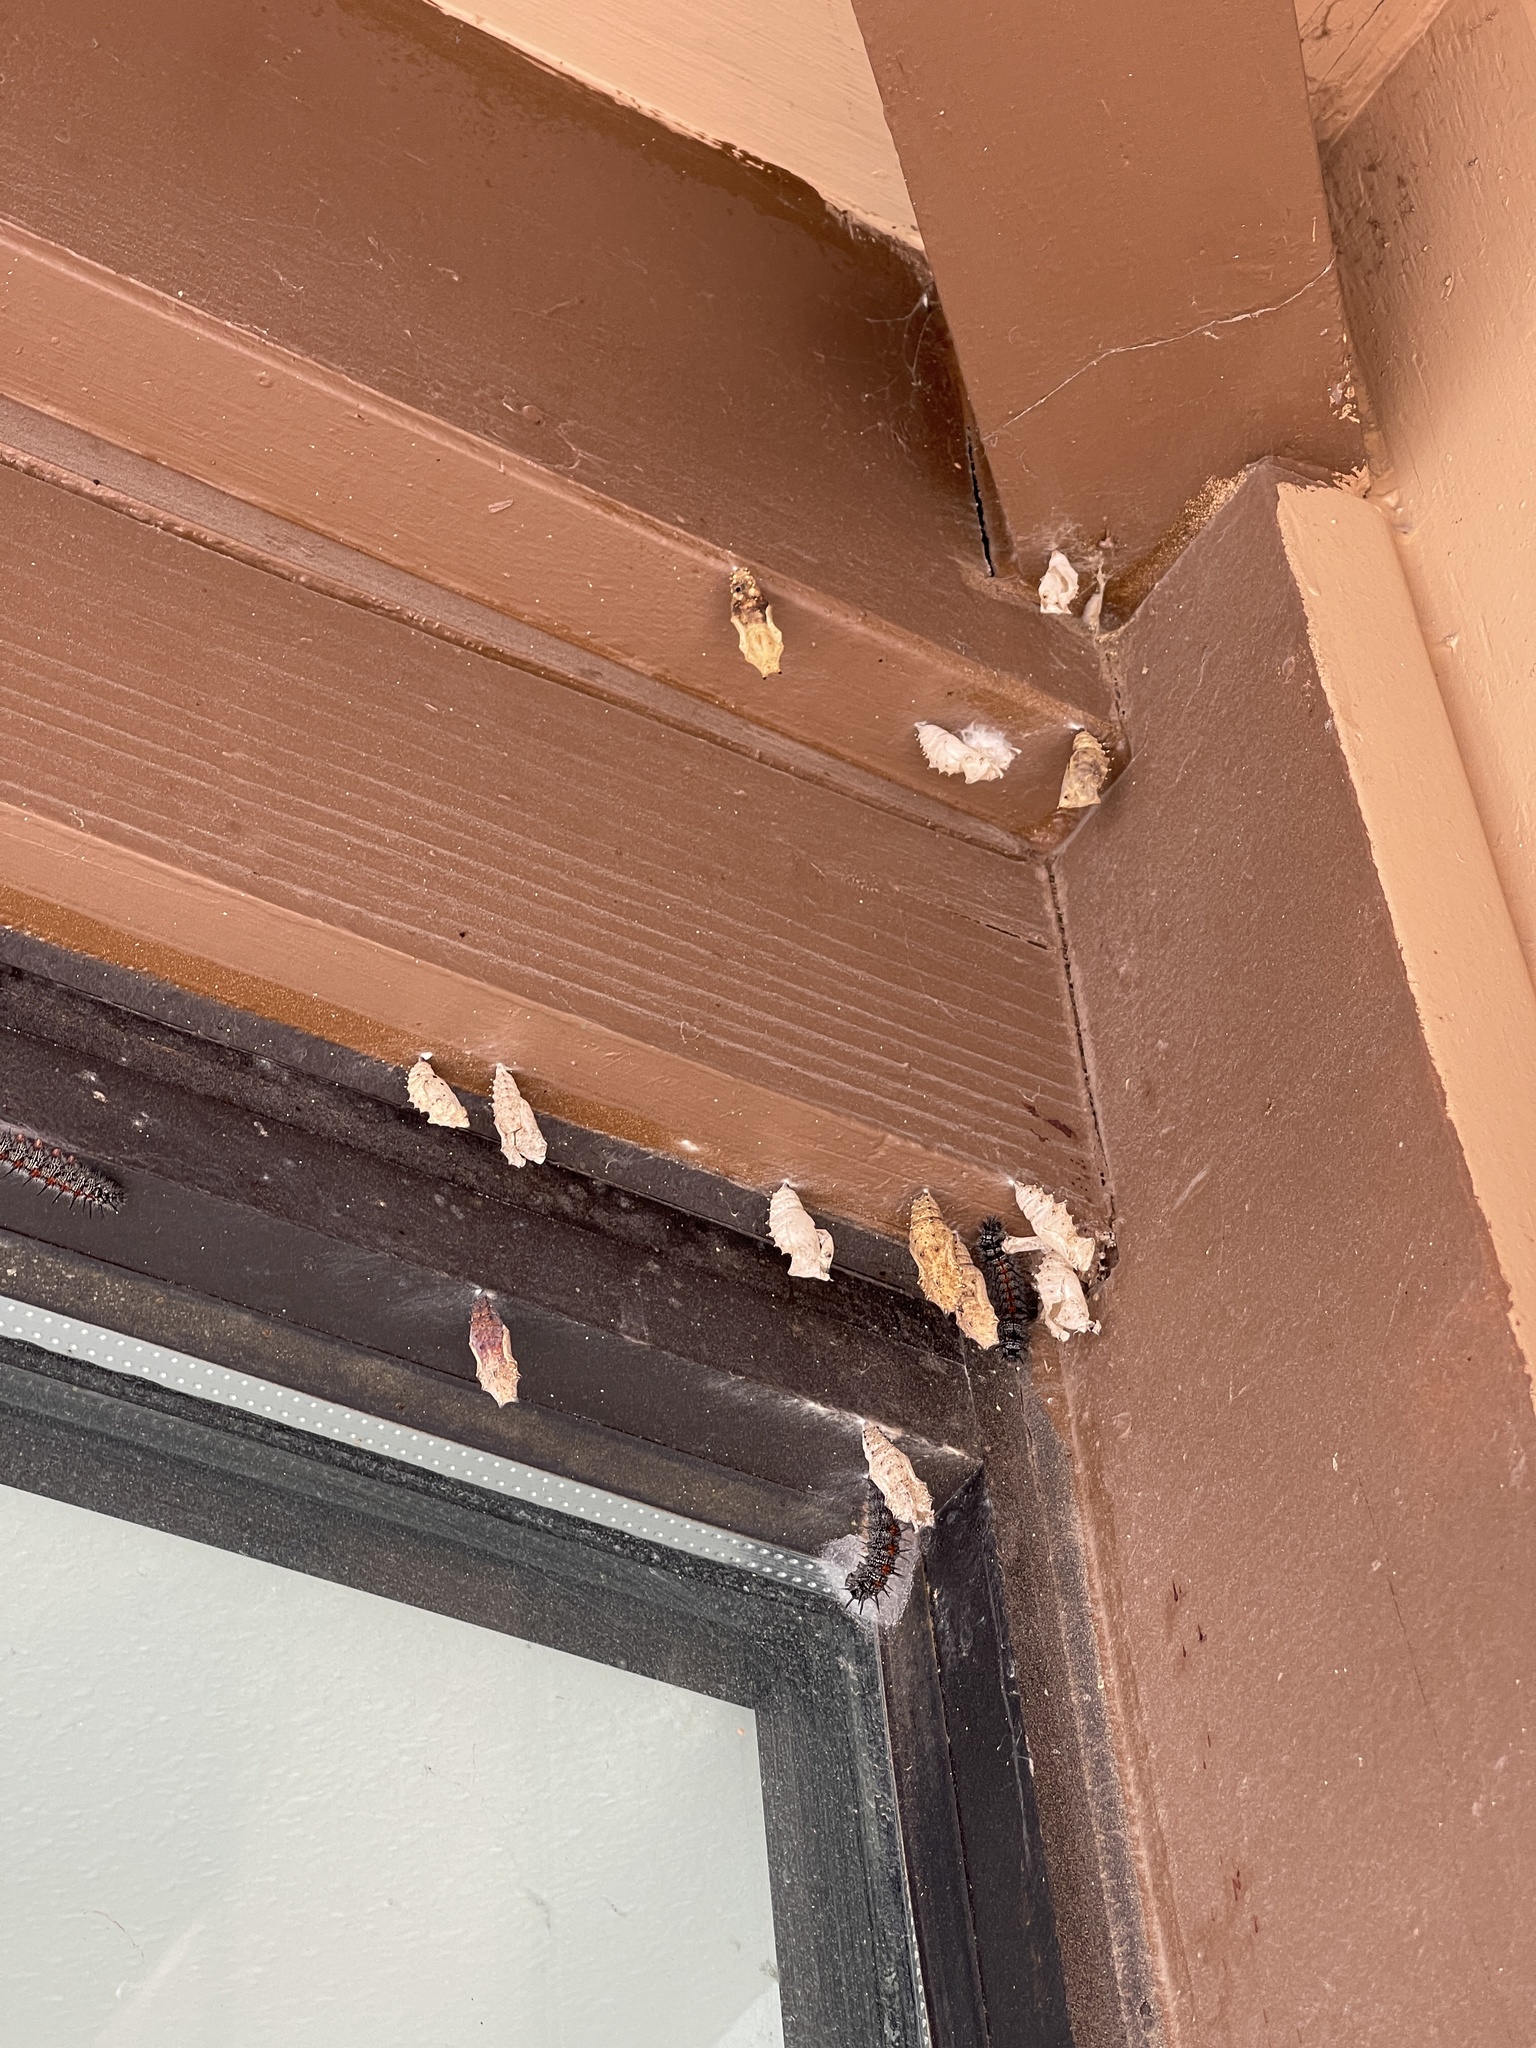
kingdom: Animalia
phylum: Arthropoda
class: Insecta
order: Lepidoptera
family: Nymphalidae
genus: Nymphalis
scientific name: Nymphalis antiopa
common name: Camberwell beauty
